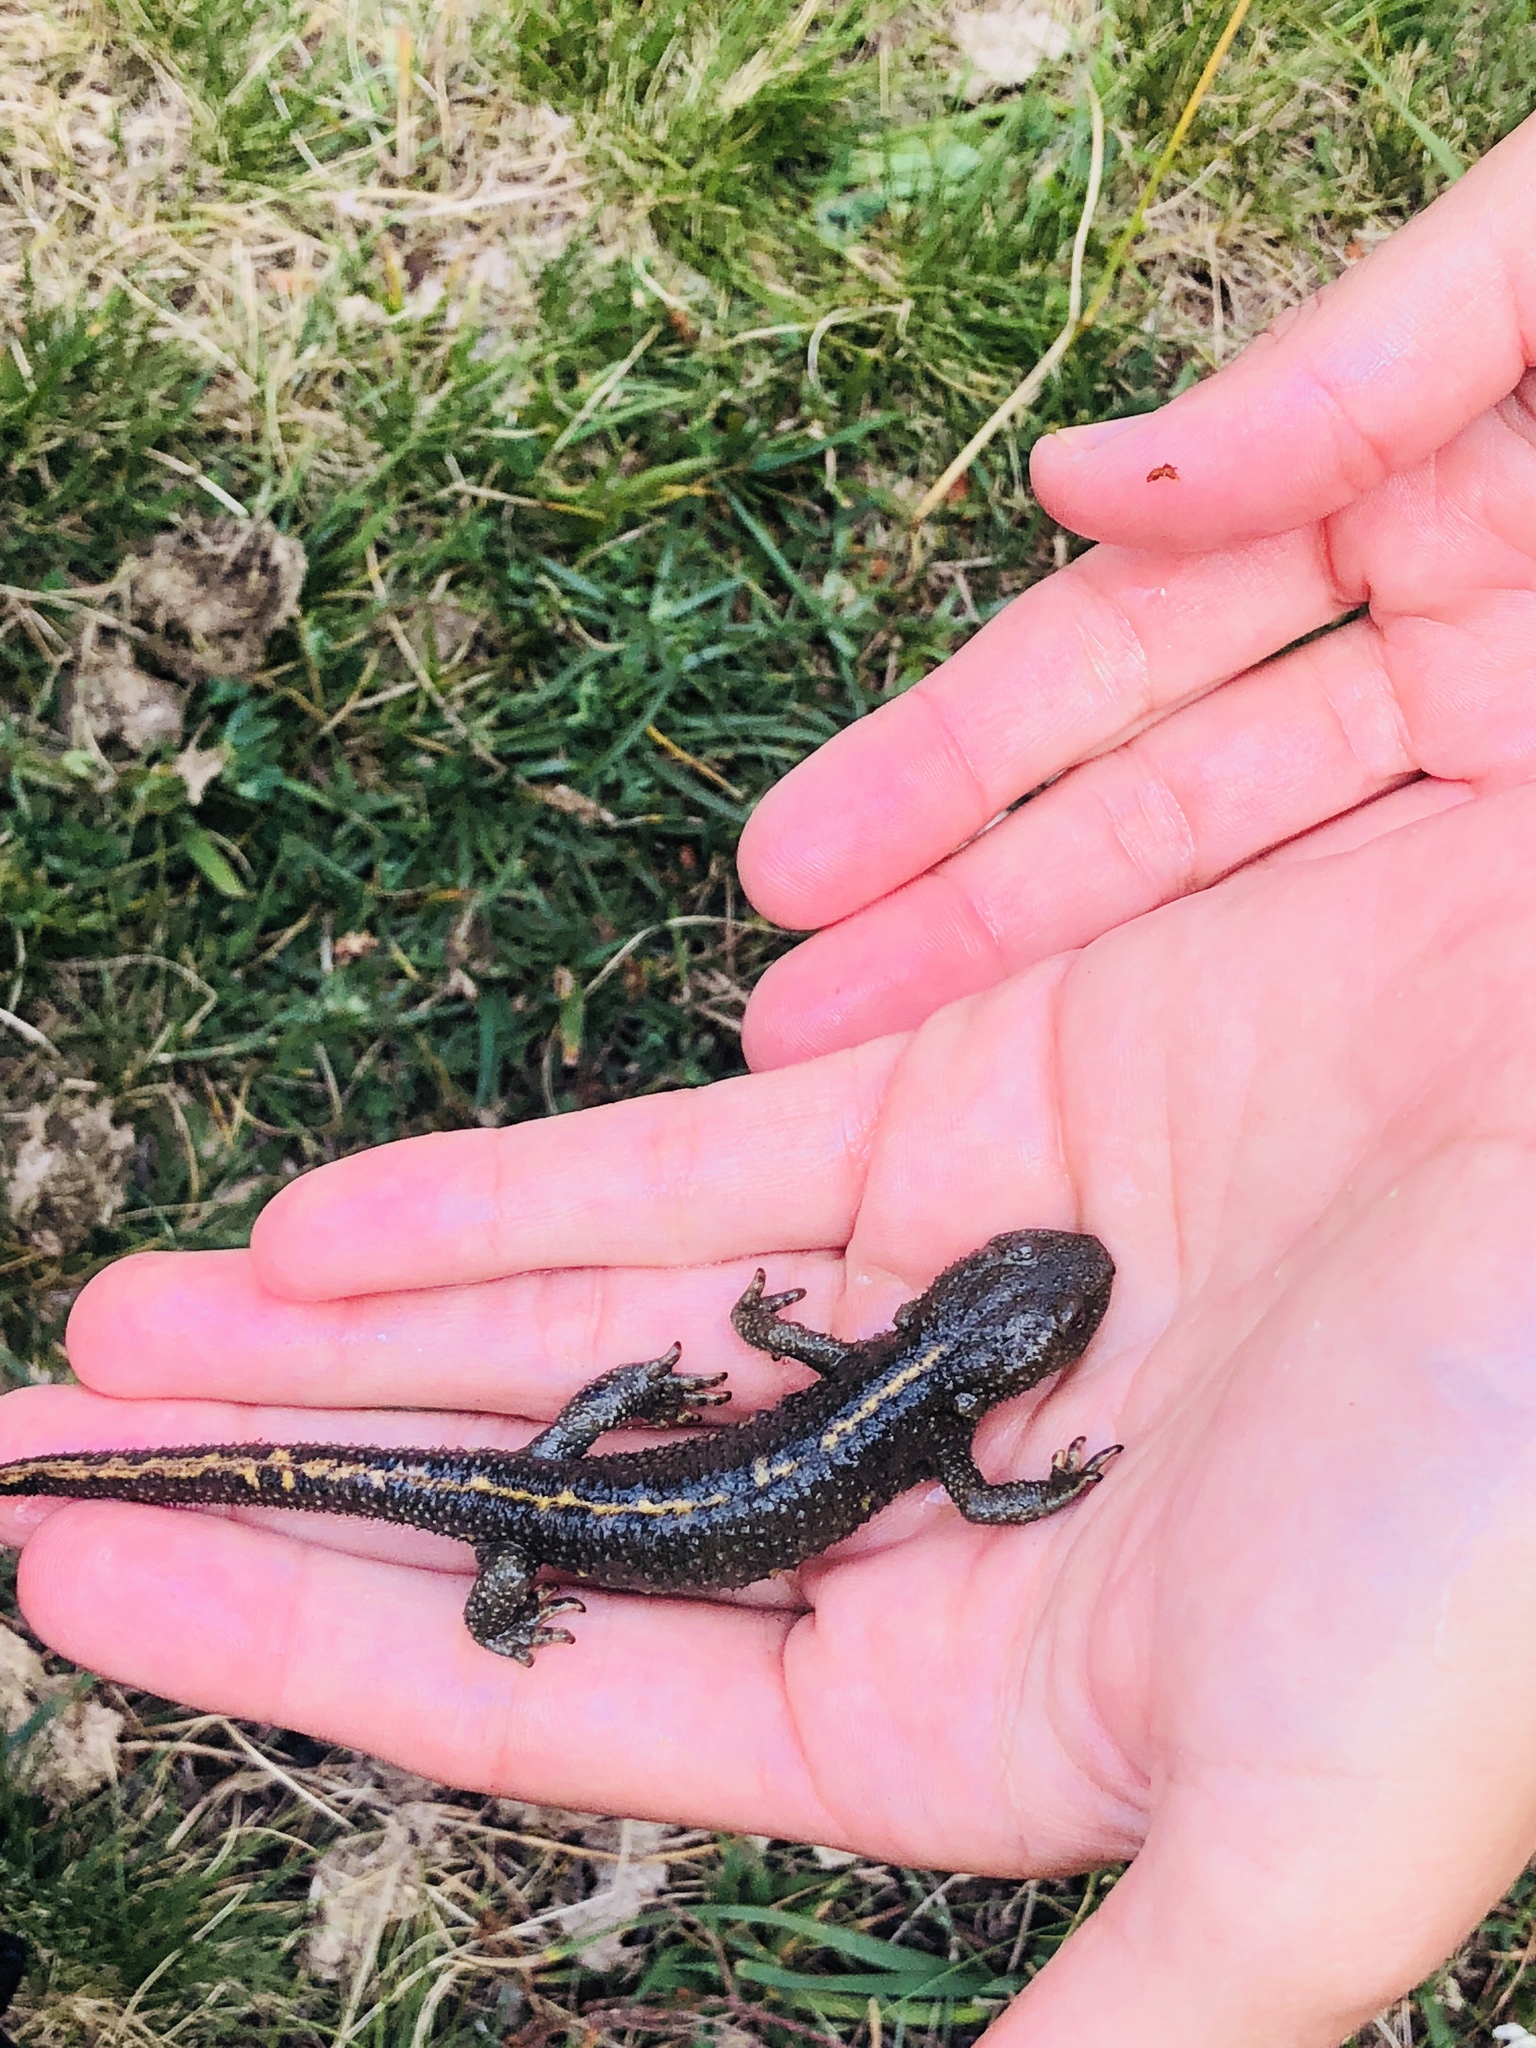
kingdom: Animalia
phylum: Chordata
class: Amphibia
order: Caudata
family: Salamandridae
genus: Calotriton
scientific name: Calotriton asper
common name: Pyrenean brook salamander
